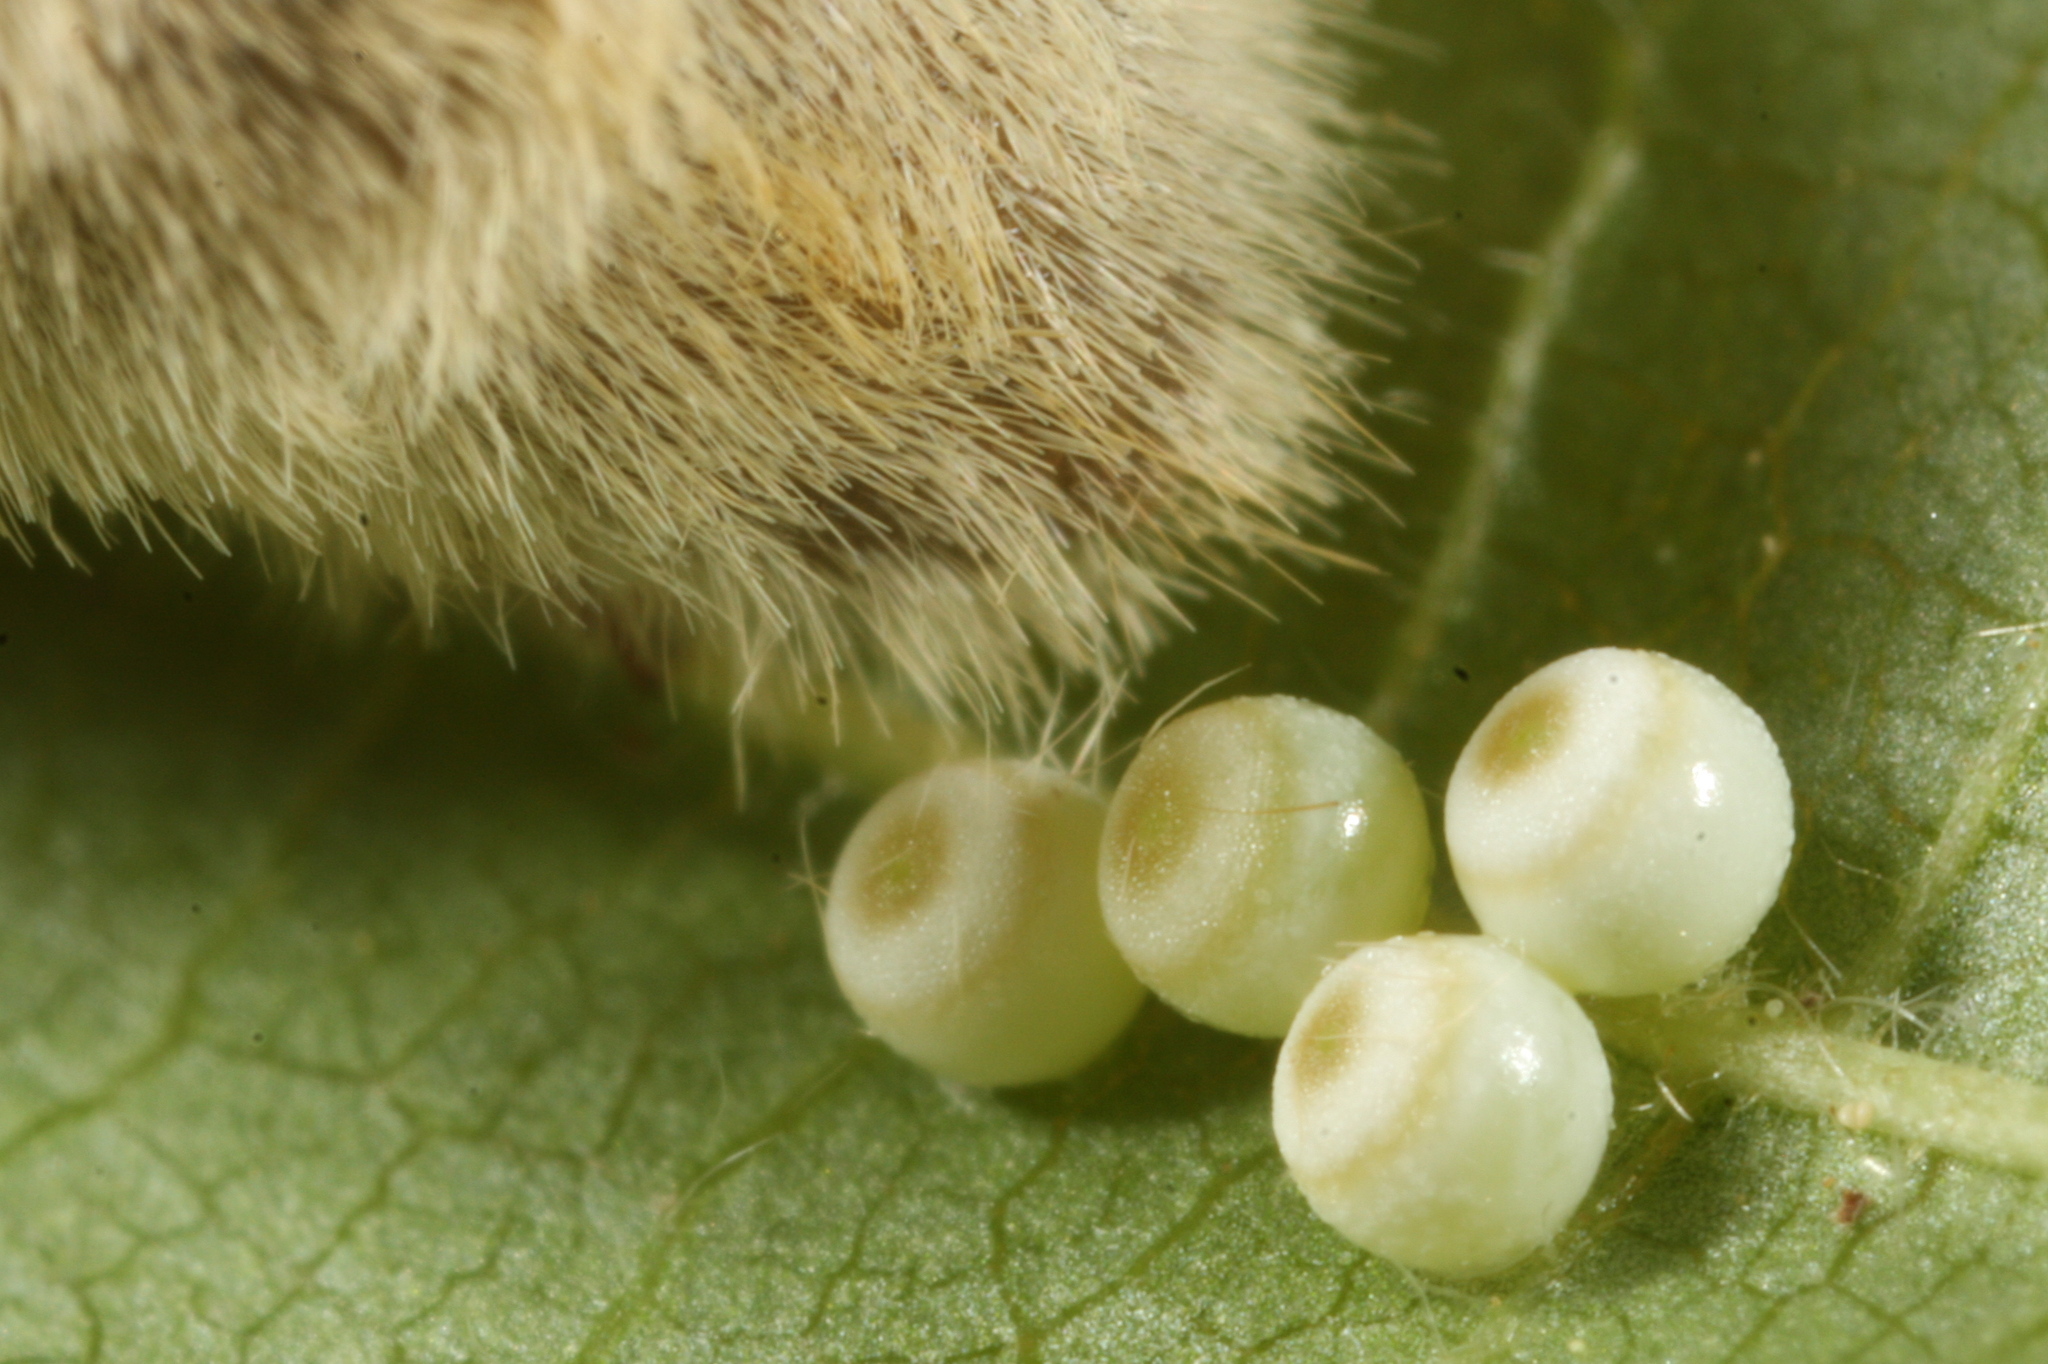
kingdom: Animalia
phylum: Arthropoda
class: Insecta
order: Lepidoptera
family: Erebidae
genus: Orgyia
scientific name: Orgyia antiqua
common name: Vapourer
